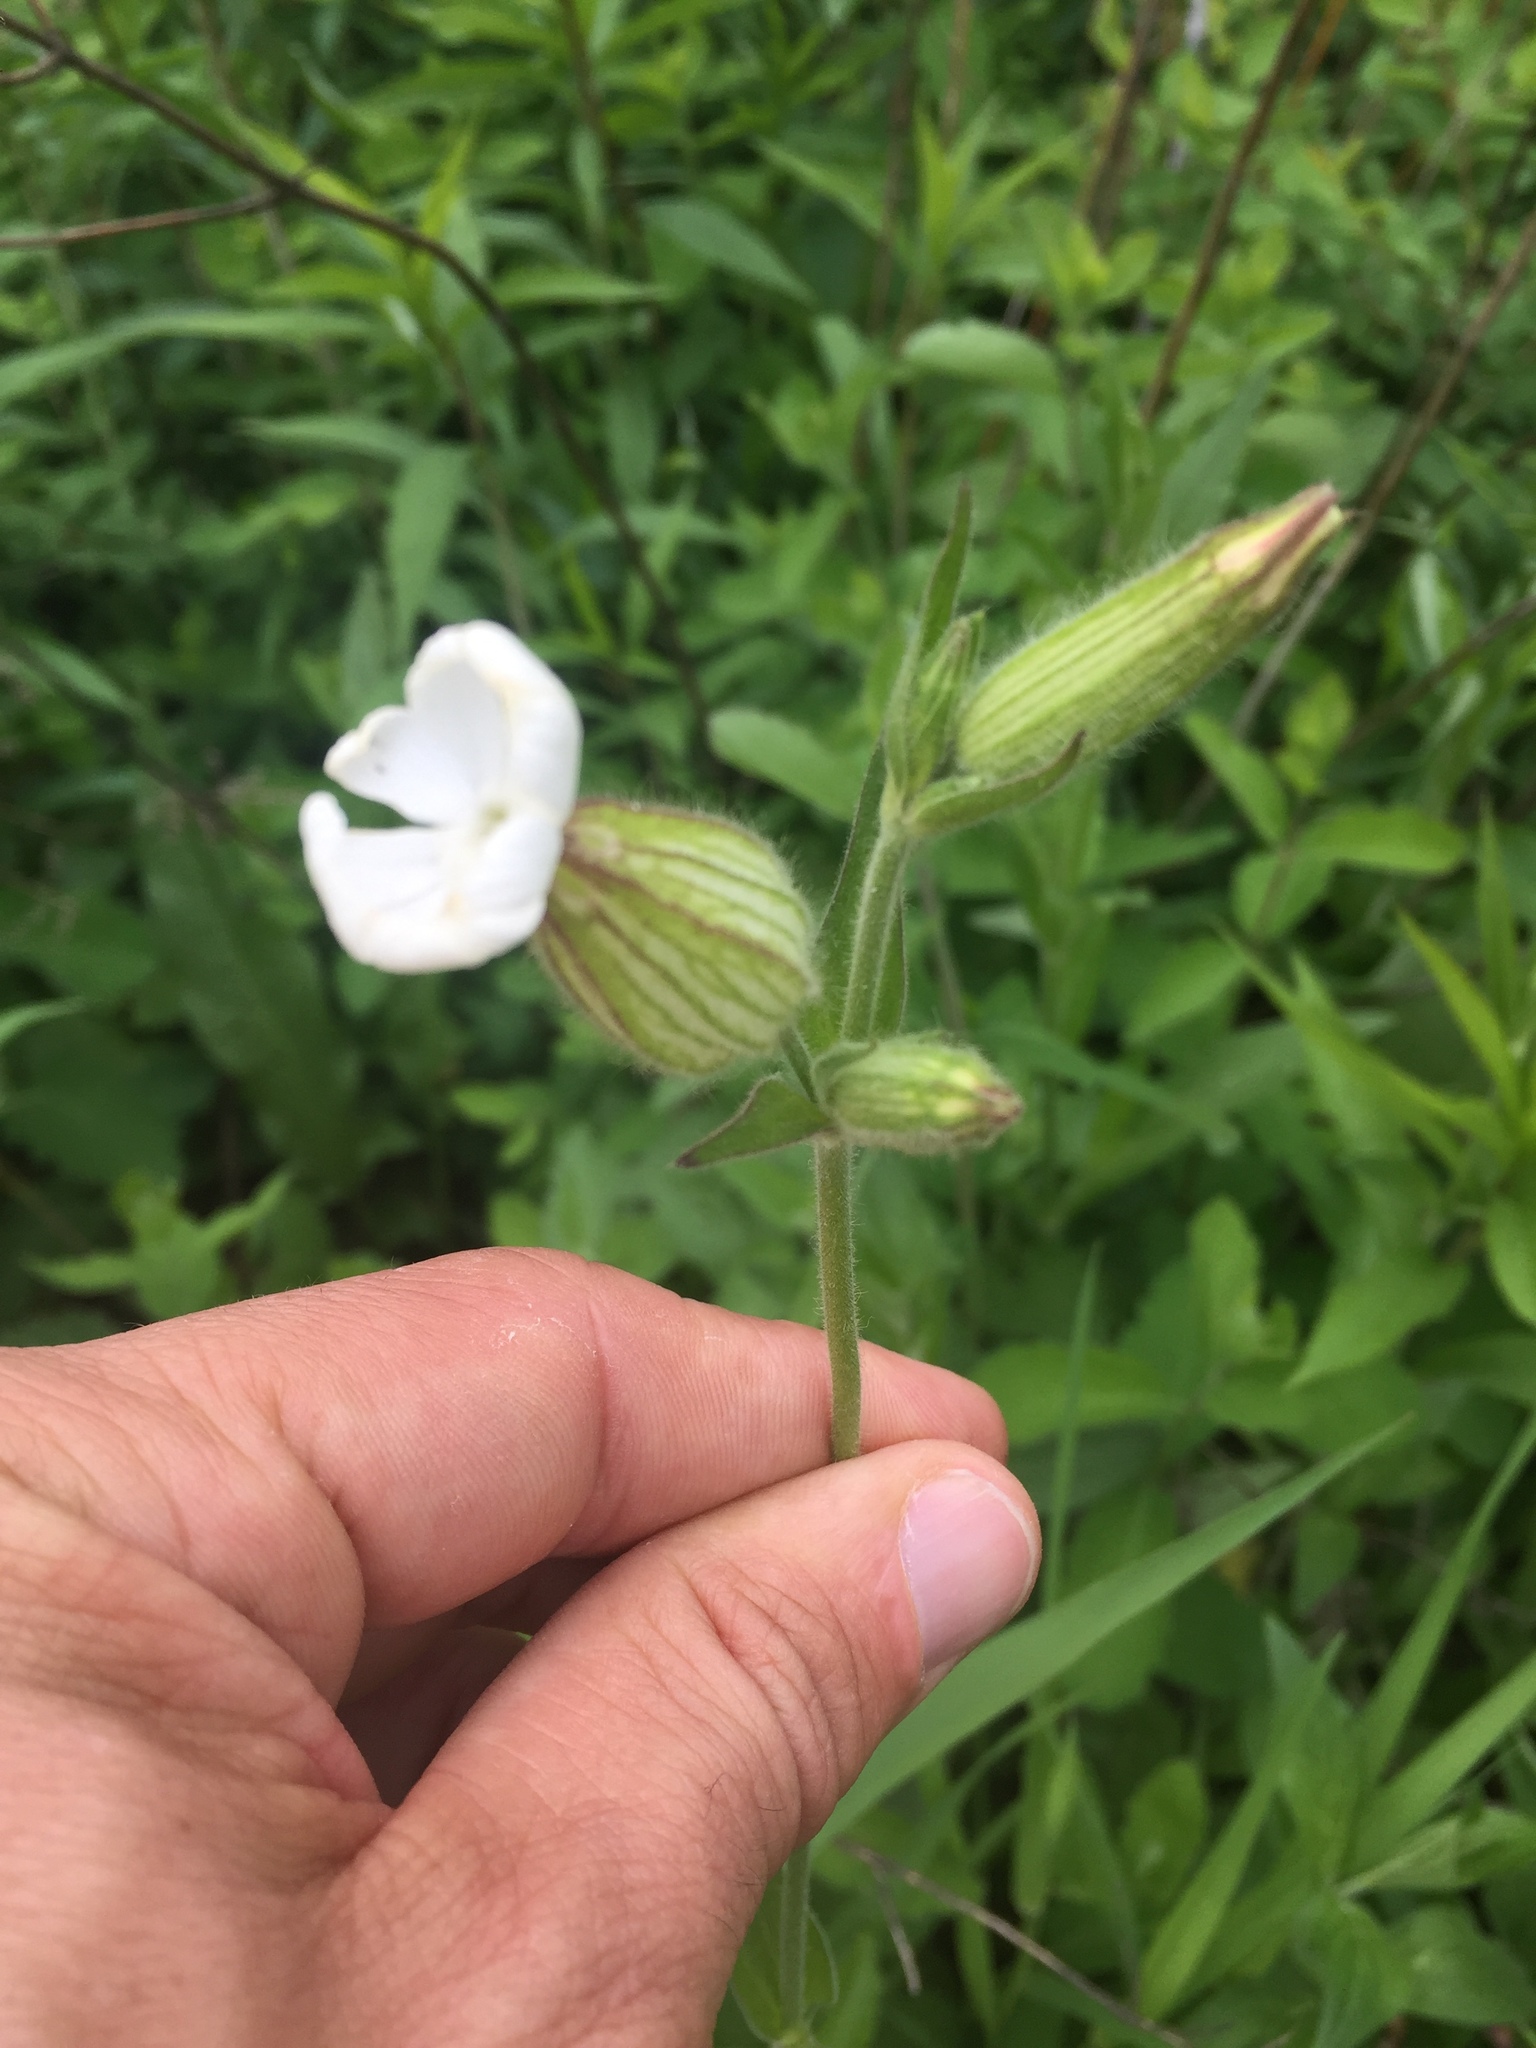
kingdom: Plantae
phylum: Tracheophyta
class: Magnoliopsida
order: Caryophyllales
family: Caryophyllaceae
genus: Silene
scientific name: Silene latifolia
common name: White campion
